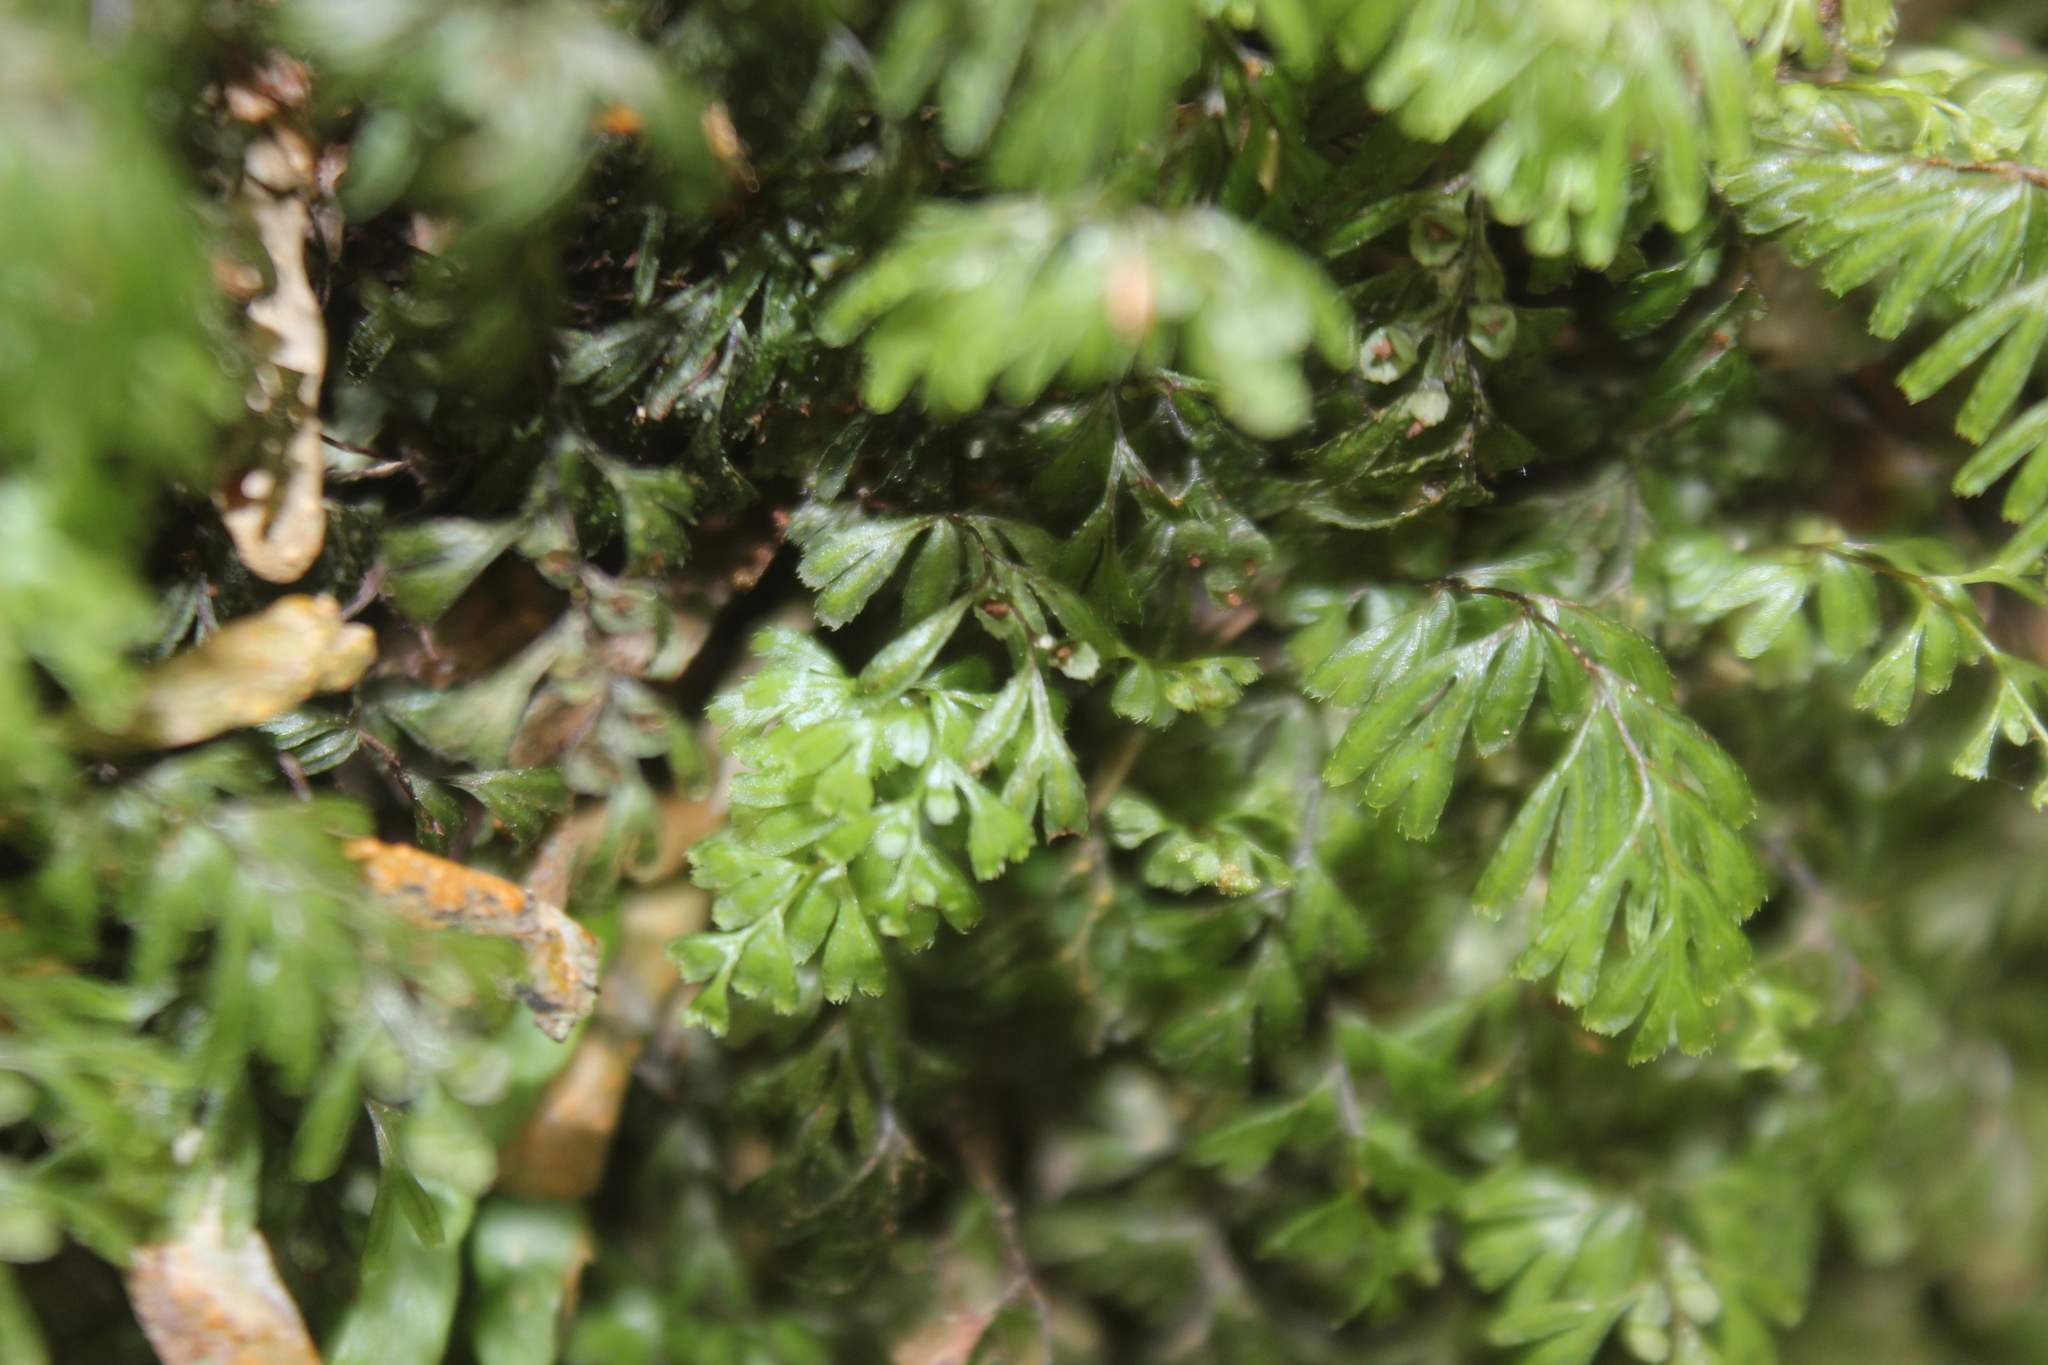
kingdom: Plantae
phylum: Tracheophyta
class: Polypodiopsida
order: Hymenophyllales
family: Hymenophyllaceae
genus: Hymenophyllum
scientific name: Hymenophyllum revolutum
